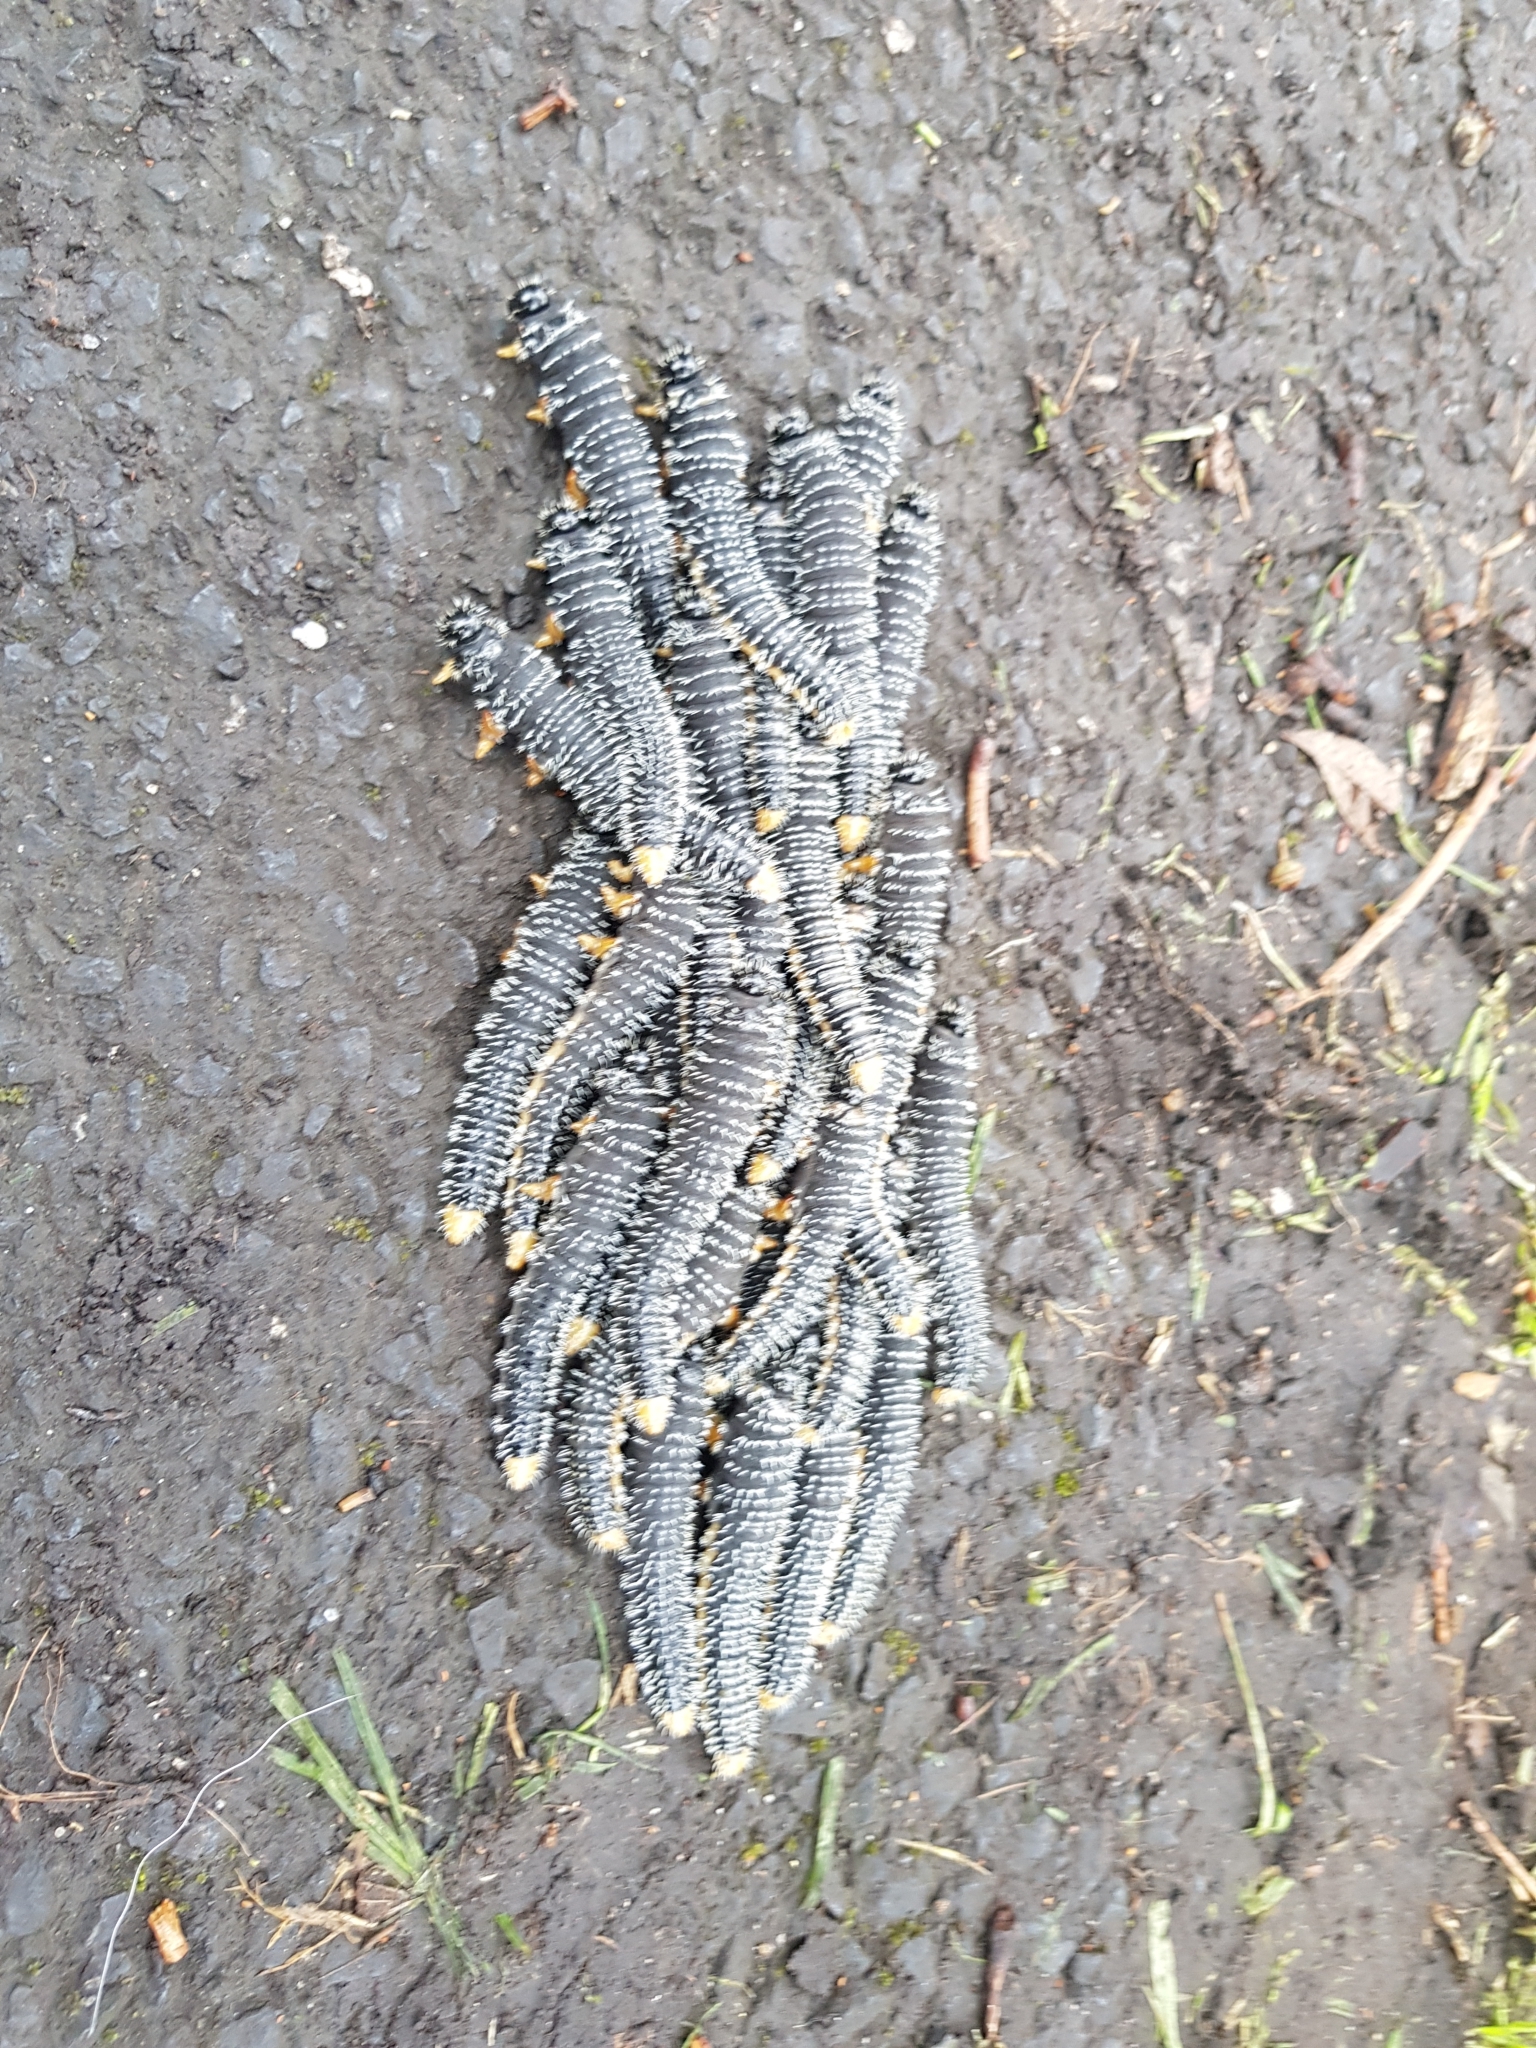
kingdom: Animalia
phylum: Arthropoda
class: Insecta
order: Hymenoptera
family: Pergidae
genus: Perga
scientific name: Perga affinis
